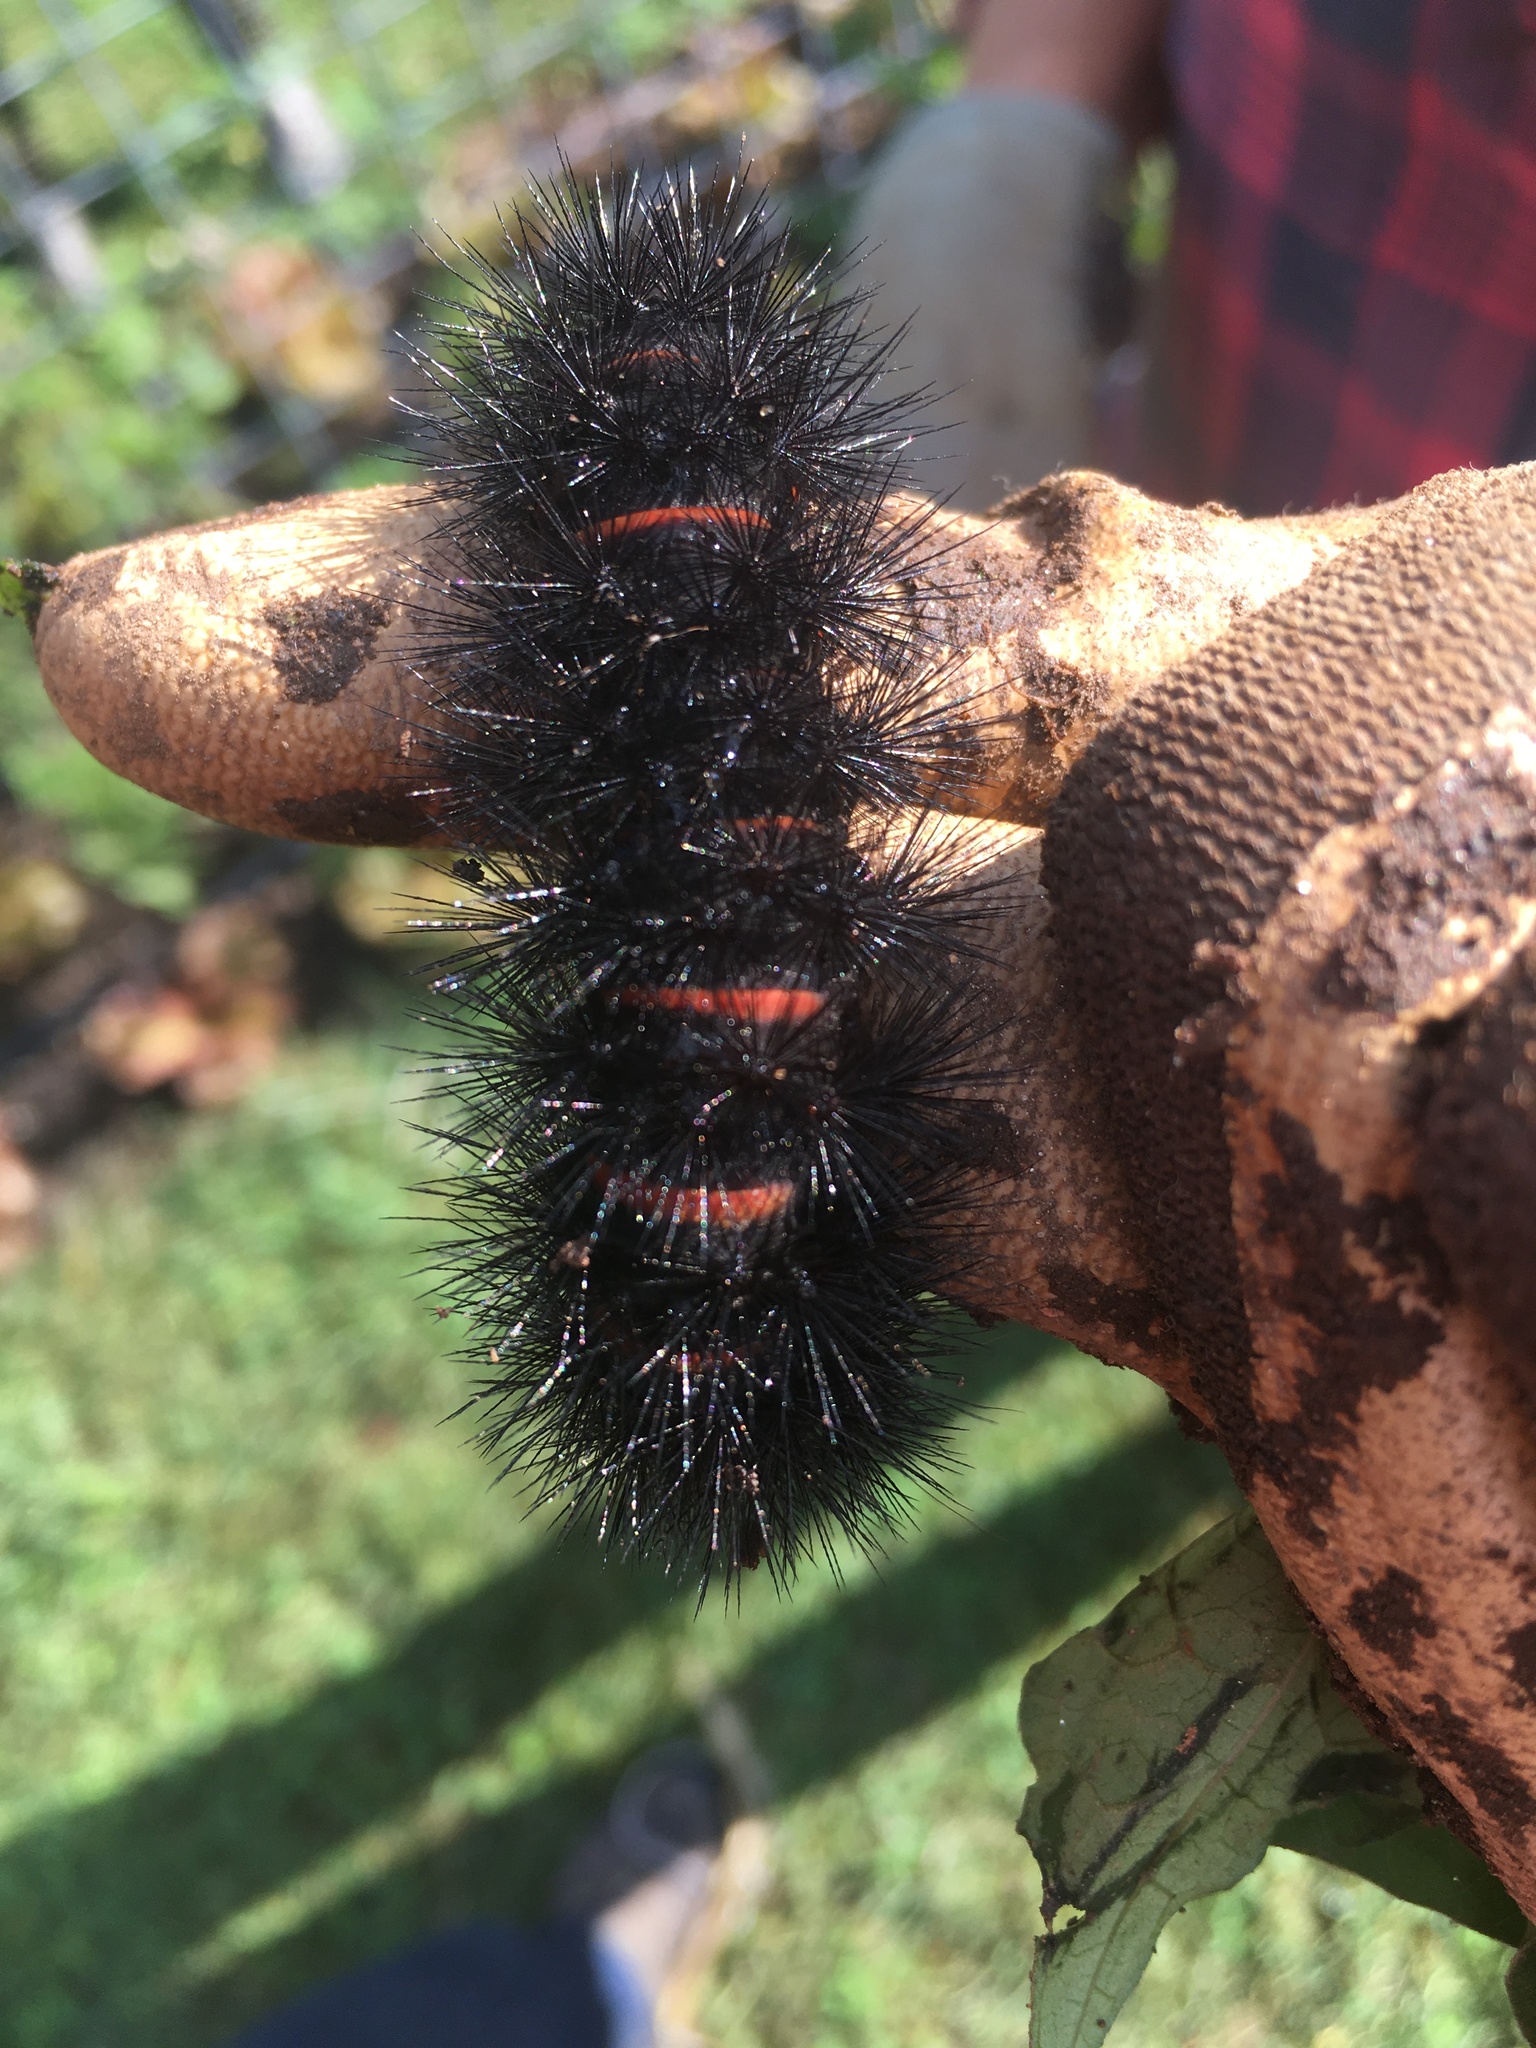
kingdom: Animalia
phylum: Arthropoda
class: Insecta
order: Lepidoptera
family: Erebidae
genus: Hypercompe
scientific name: Hypercompe scribonia
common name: Giant leopard moth
